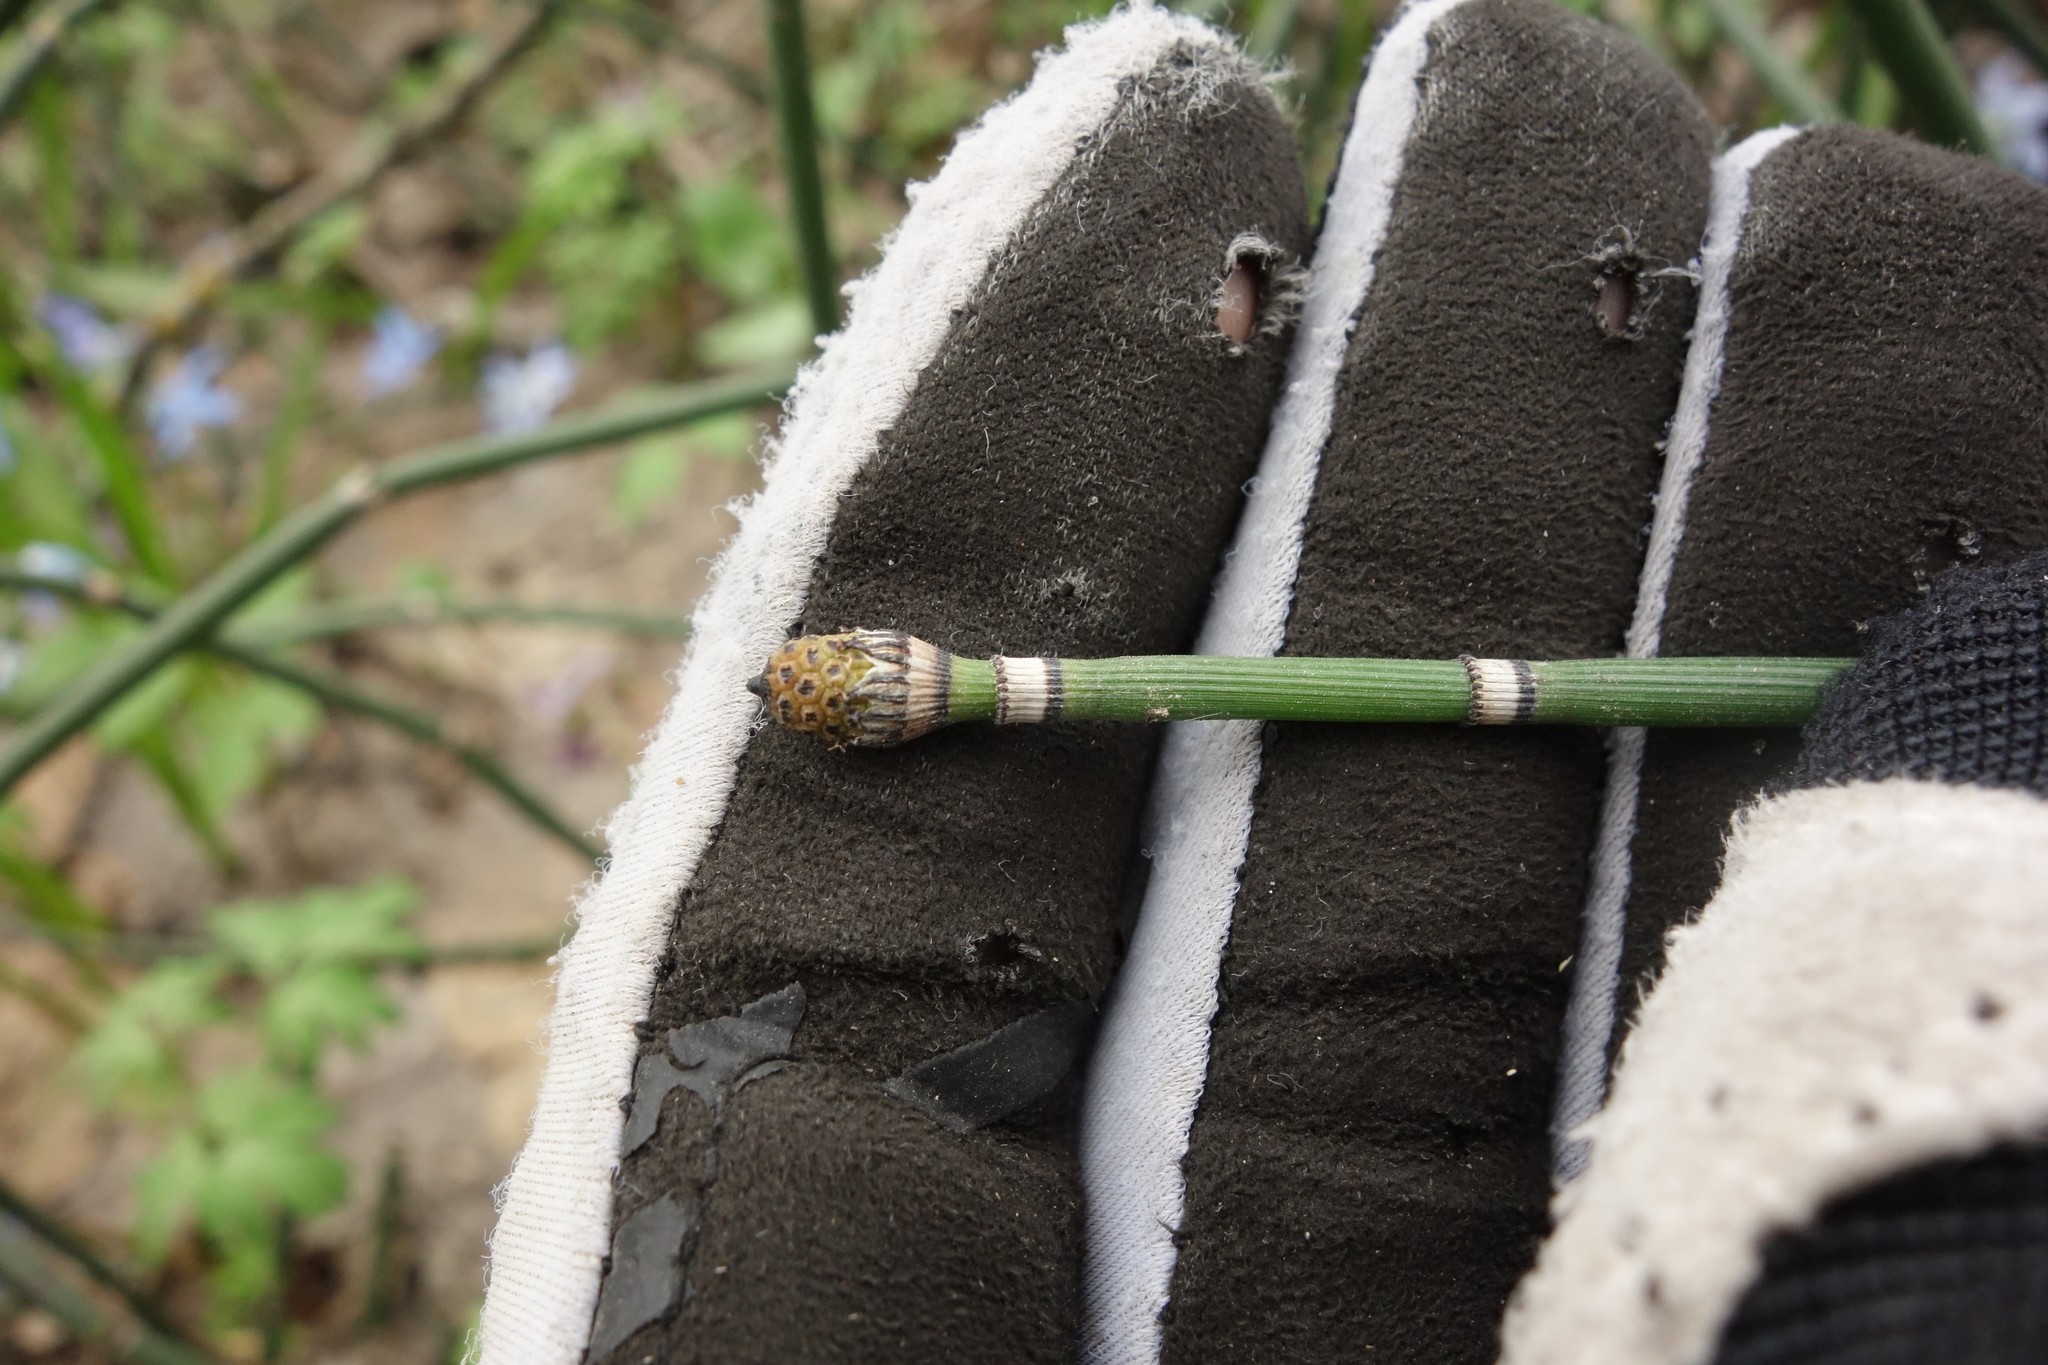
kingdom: Plantae
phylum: Tracheophyta
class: Polypodiopsida
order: Equisetales
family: Equisetaceae
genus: Equisetum
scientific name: Equisetum hyemale
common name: Rough horsetail
